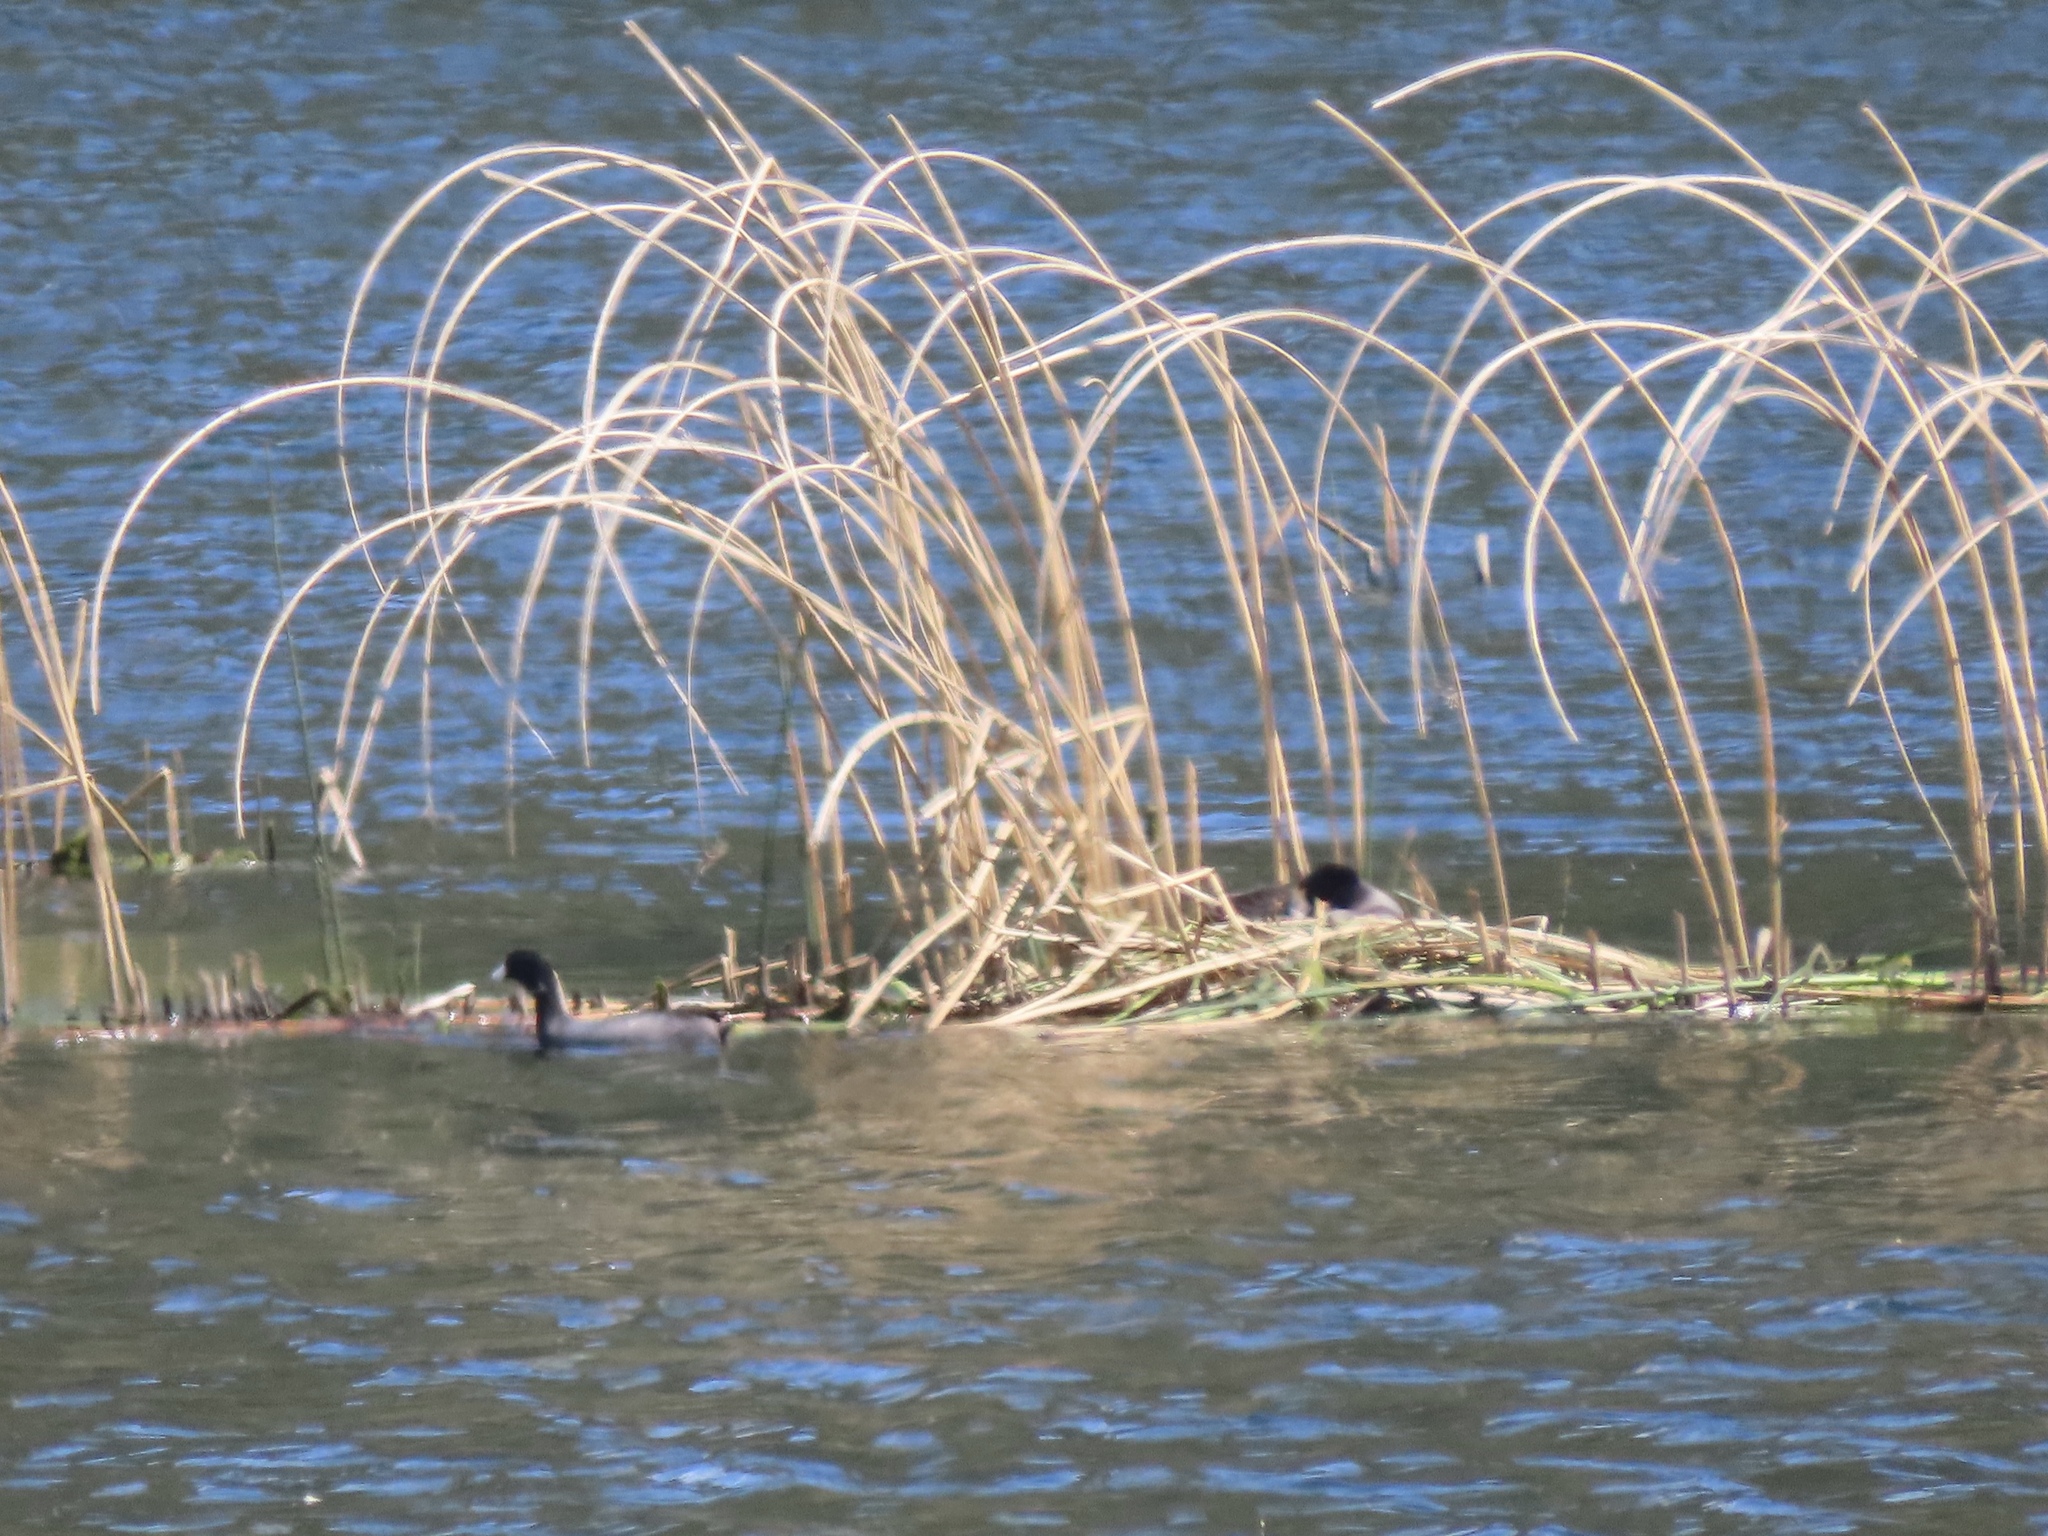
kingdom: Animalia
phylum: Chordata
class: Aves
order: Gruiformes
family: Rallidae
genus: Fulica
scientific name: Fulica americana
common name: American coot
